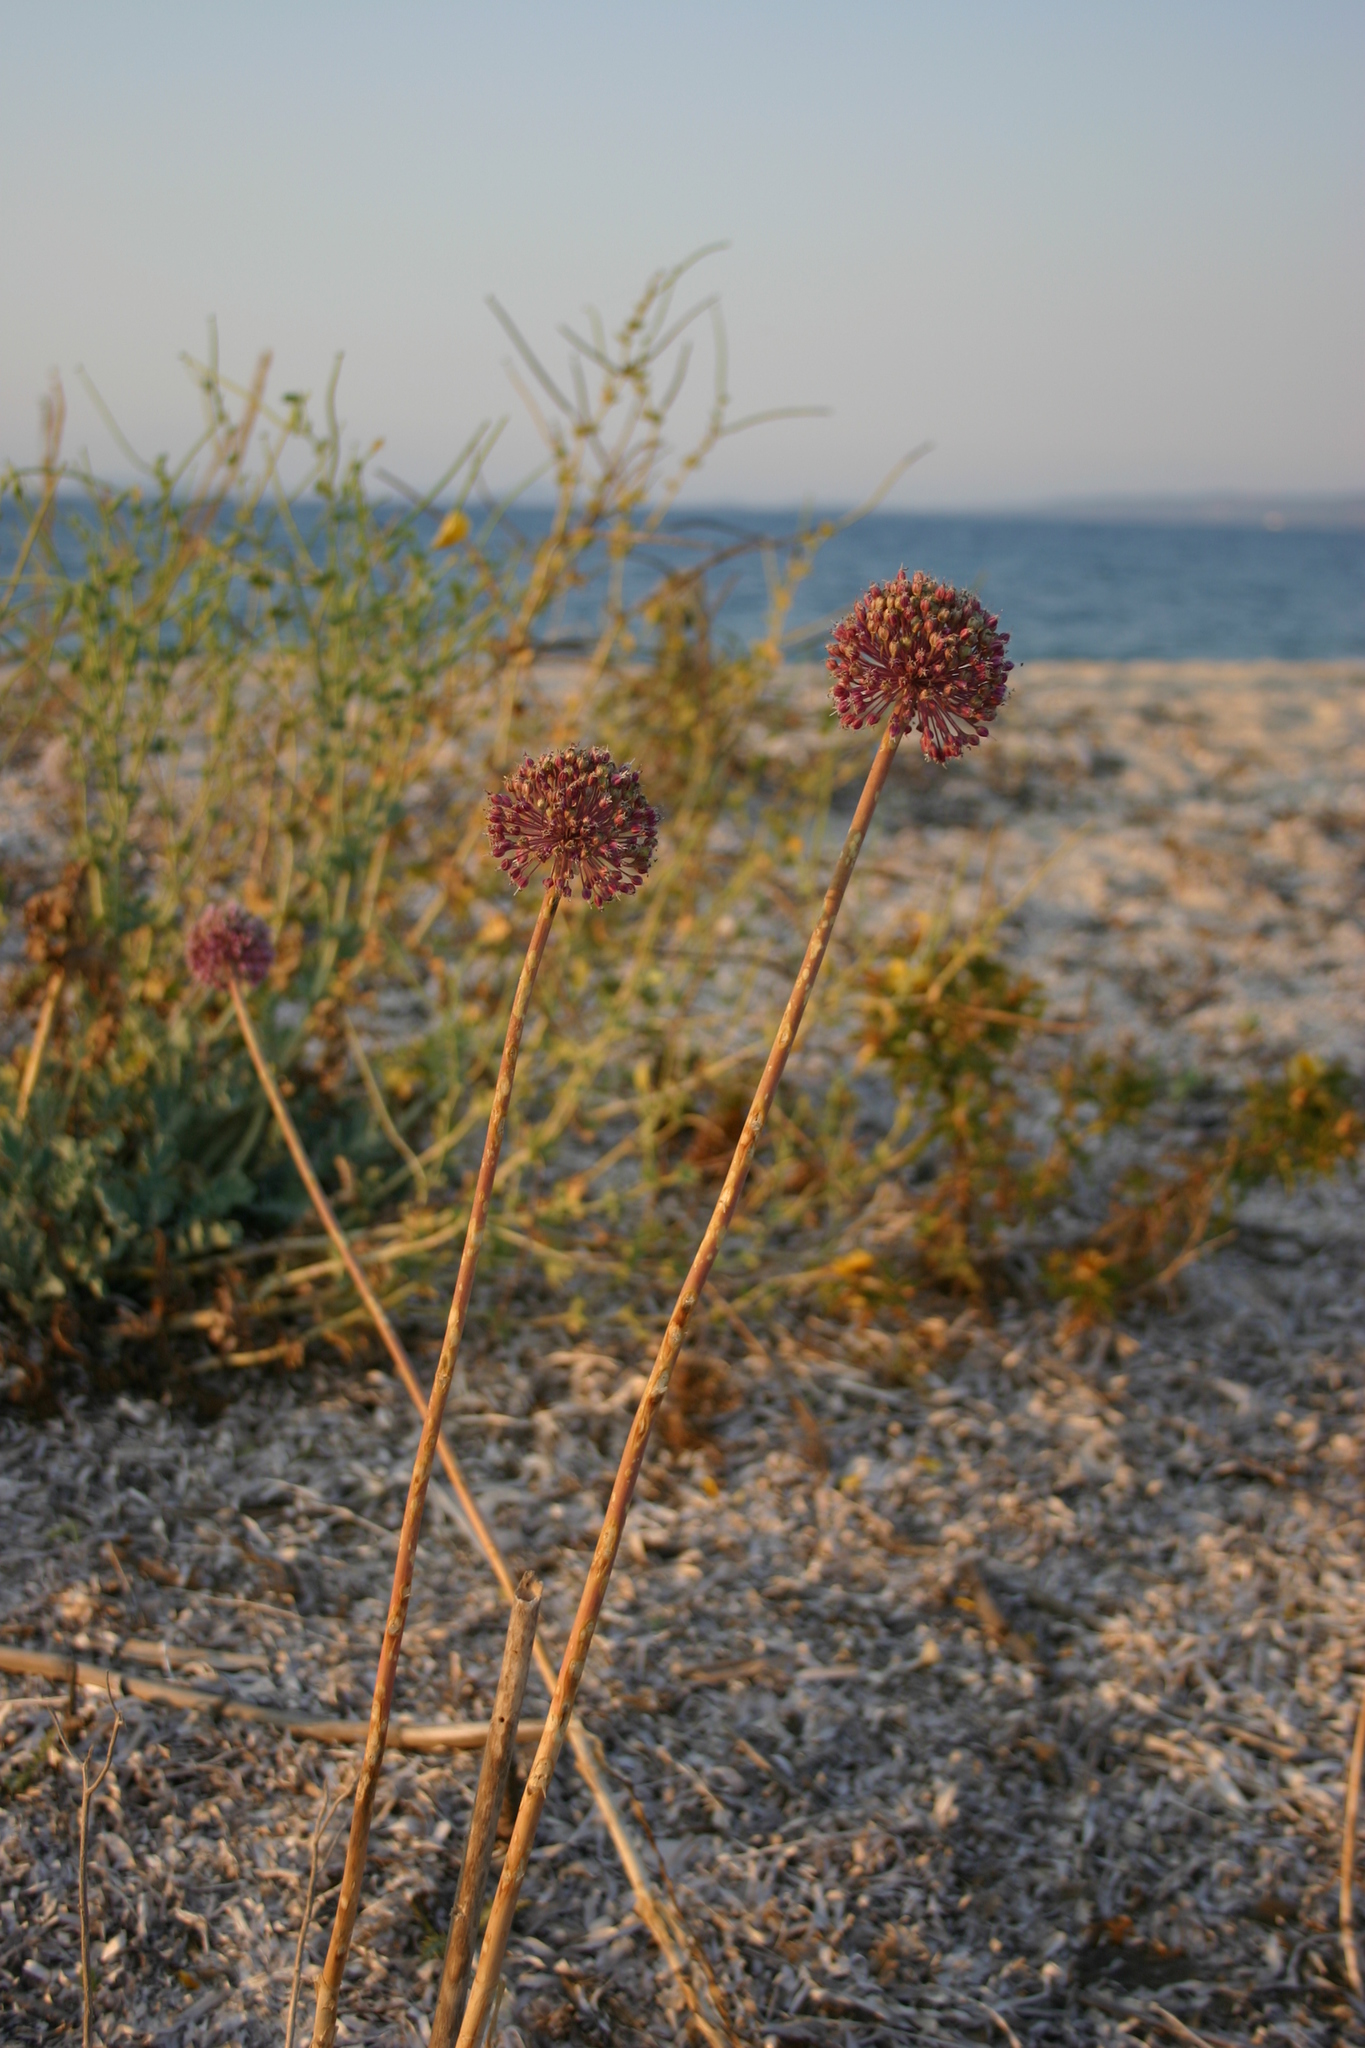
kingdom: Plantae
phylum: Tracheophyta
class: Liliopsida
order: Asparagales
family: Amaryllidaceae
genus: Allium
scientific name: Allium commutatum
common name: Sea garlic
